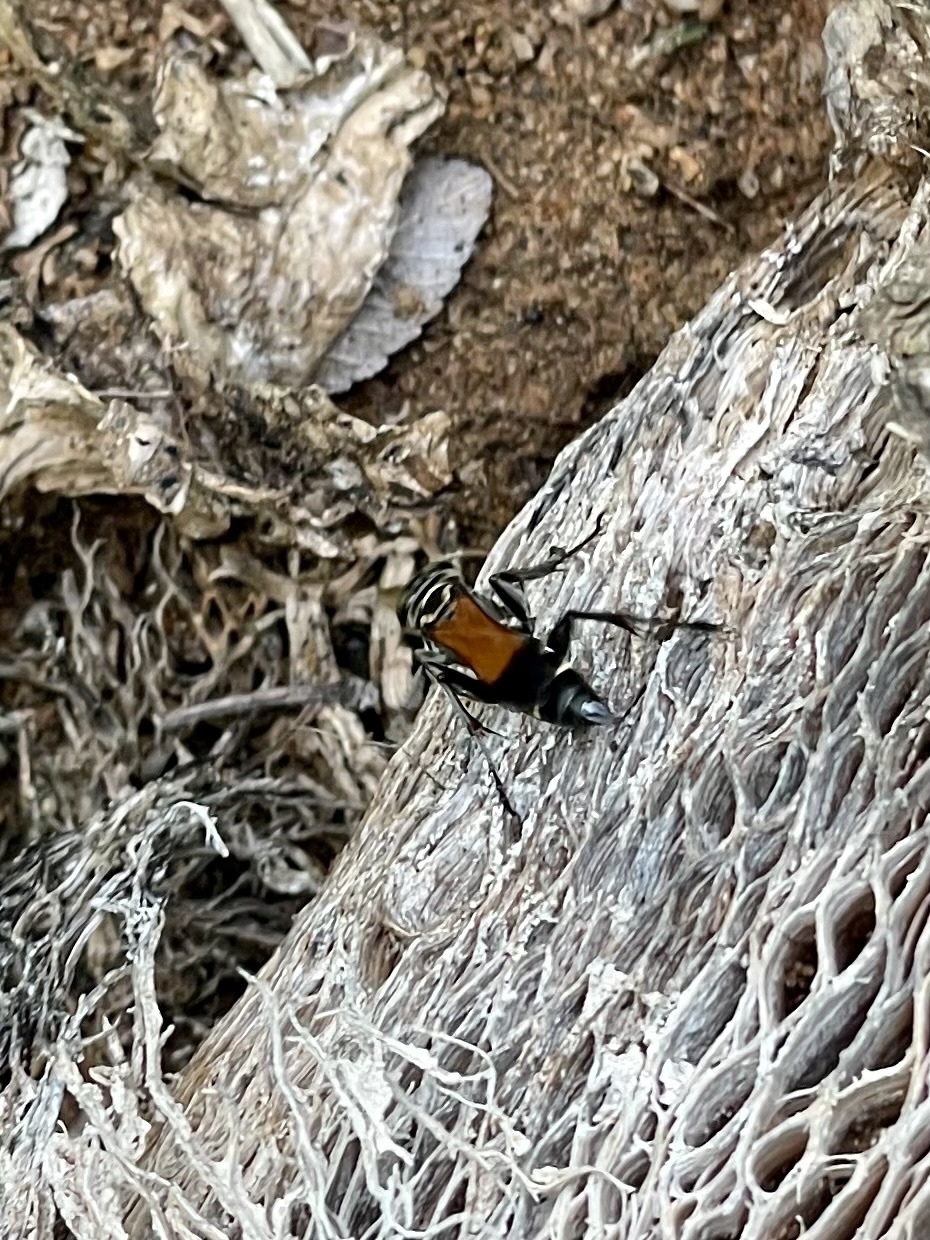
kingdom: Animalia
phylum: Arthropoda
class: Insecta
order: Hymenoptera
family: Crabronidae
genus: Liris
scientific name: Liris partitus
